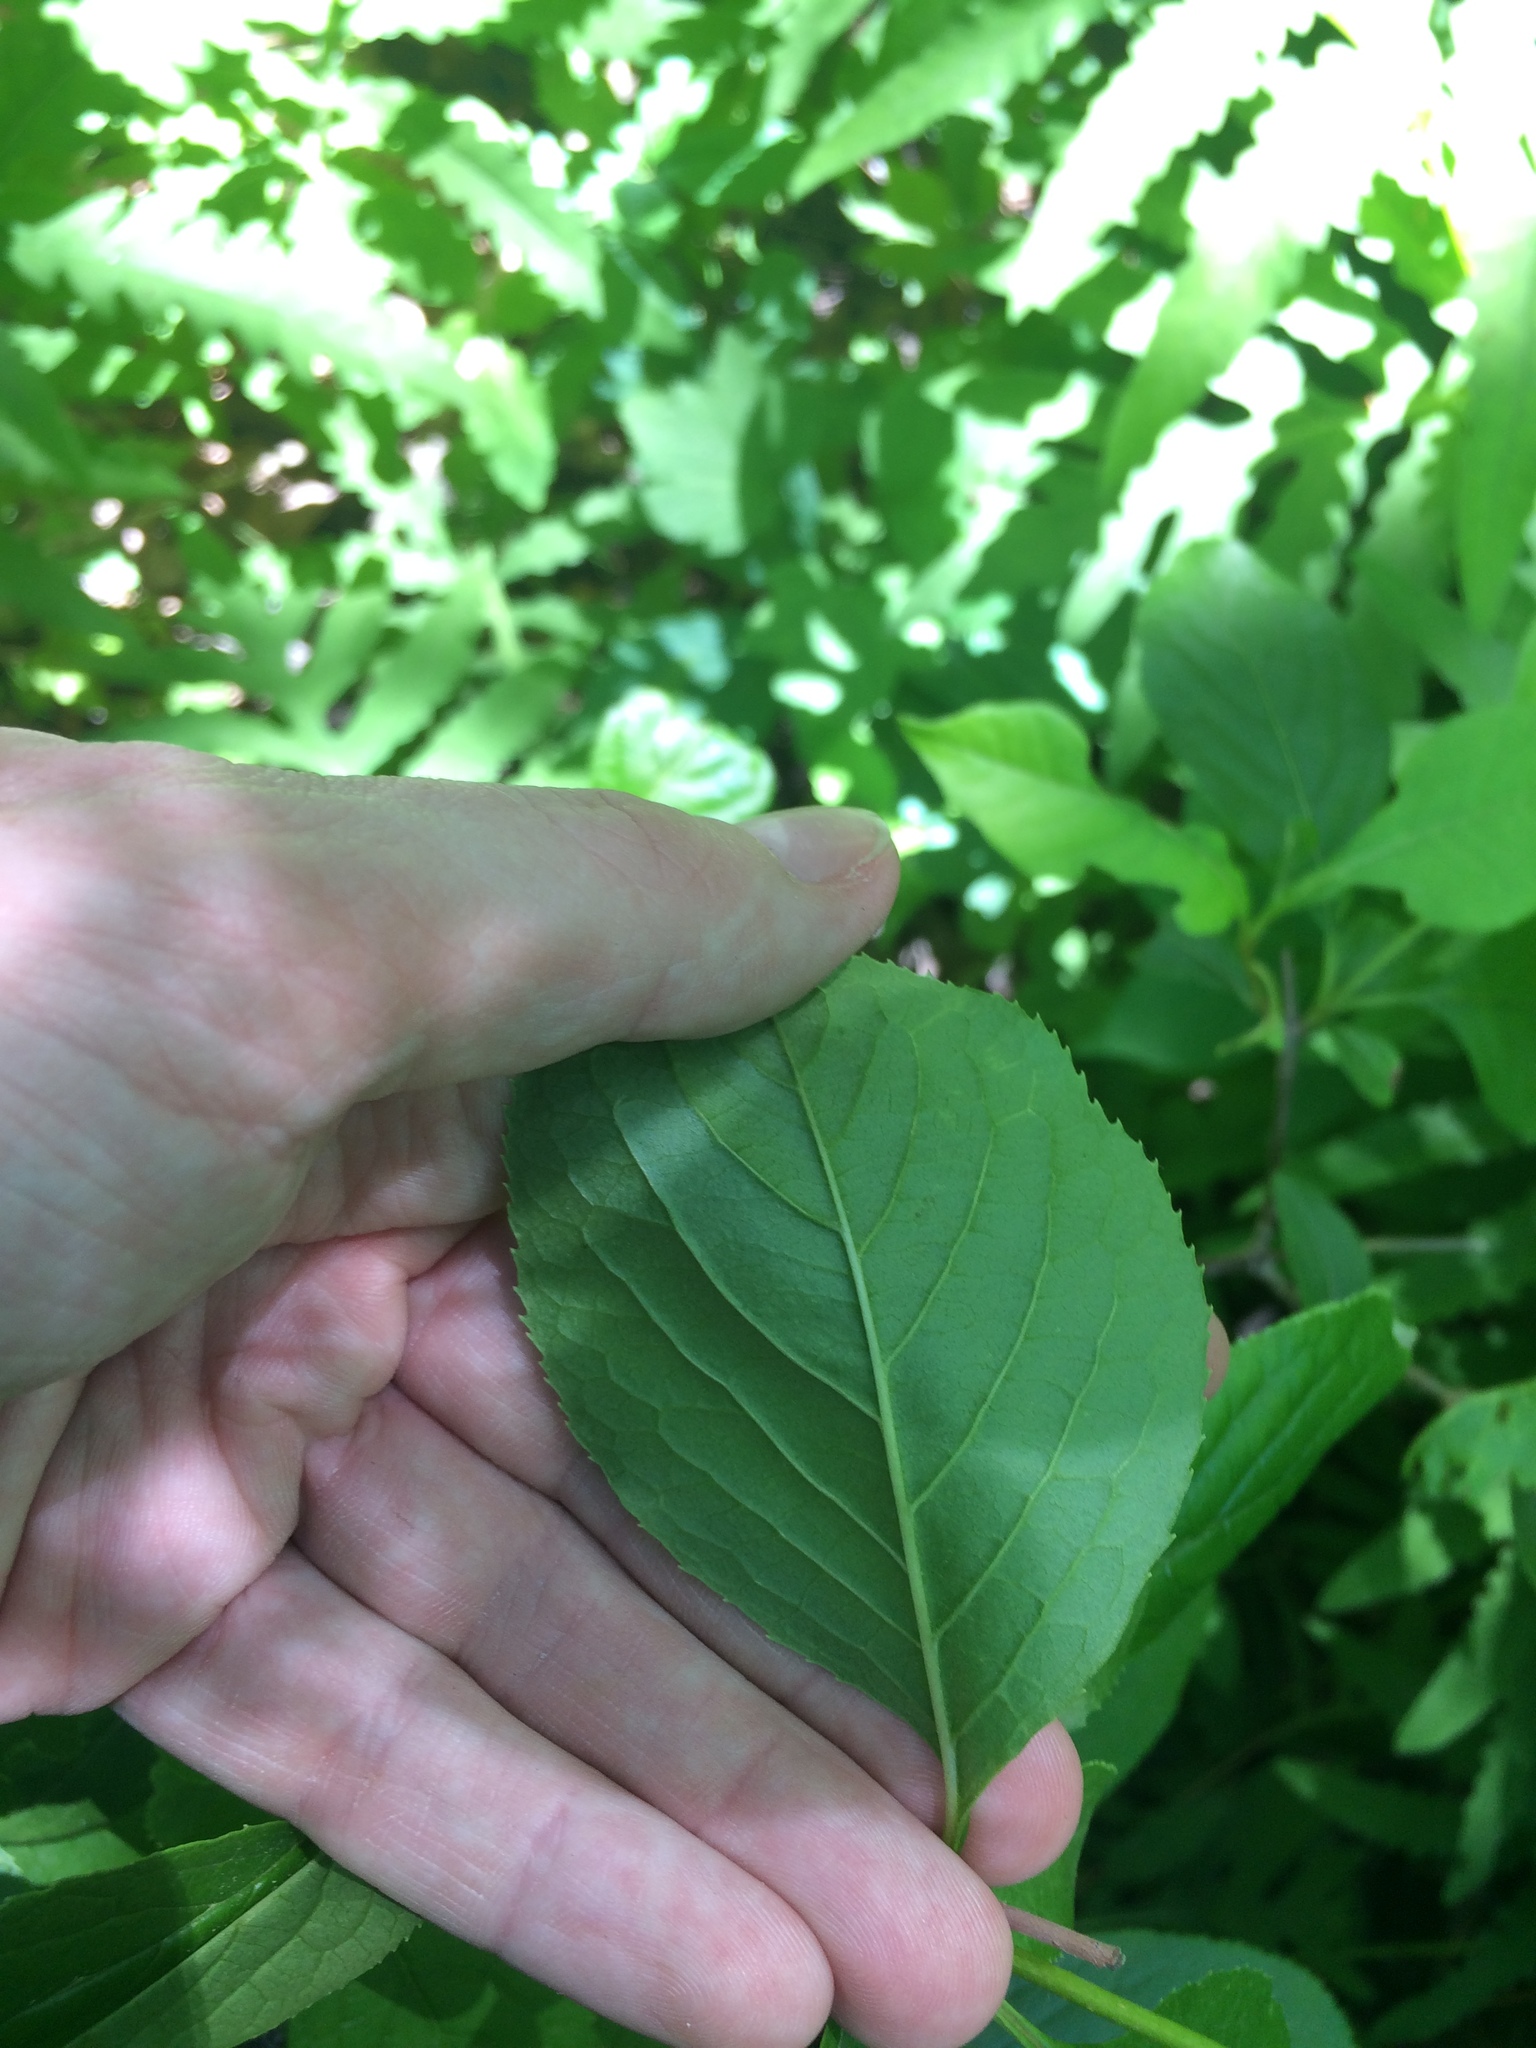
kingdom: Plantae
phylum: Tracheophyta
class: Magnoliopsida
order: Dipsacales
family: Viburnaceae
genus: Viburnum
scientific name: Viburnum lentago
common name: Black haw
